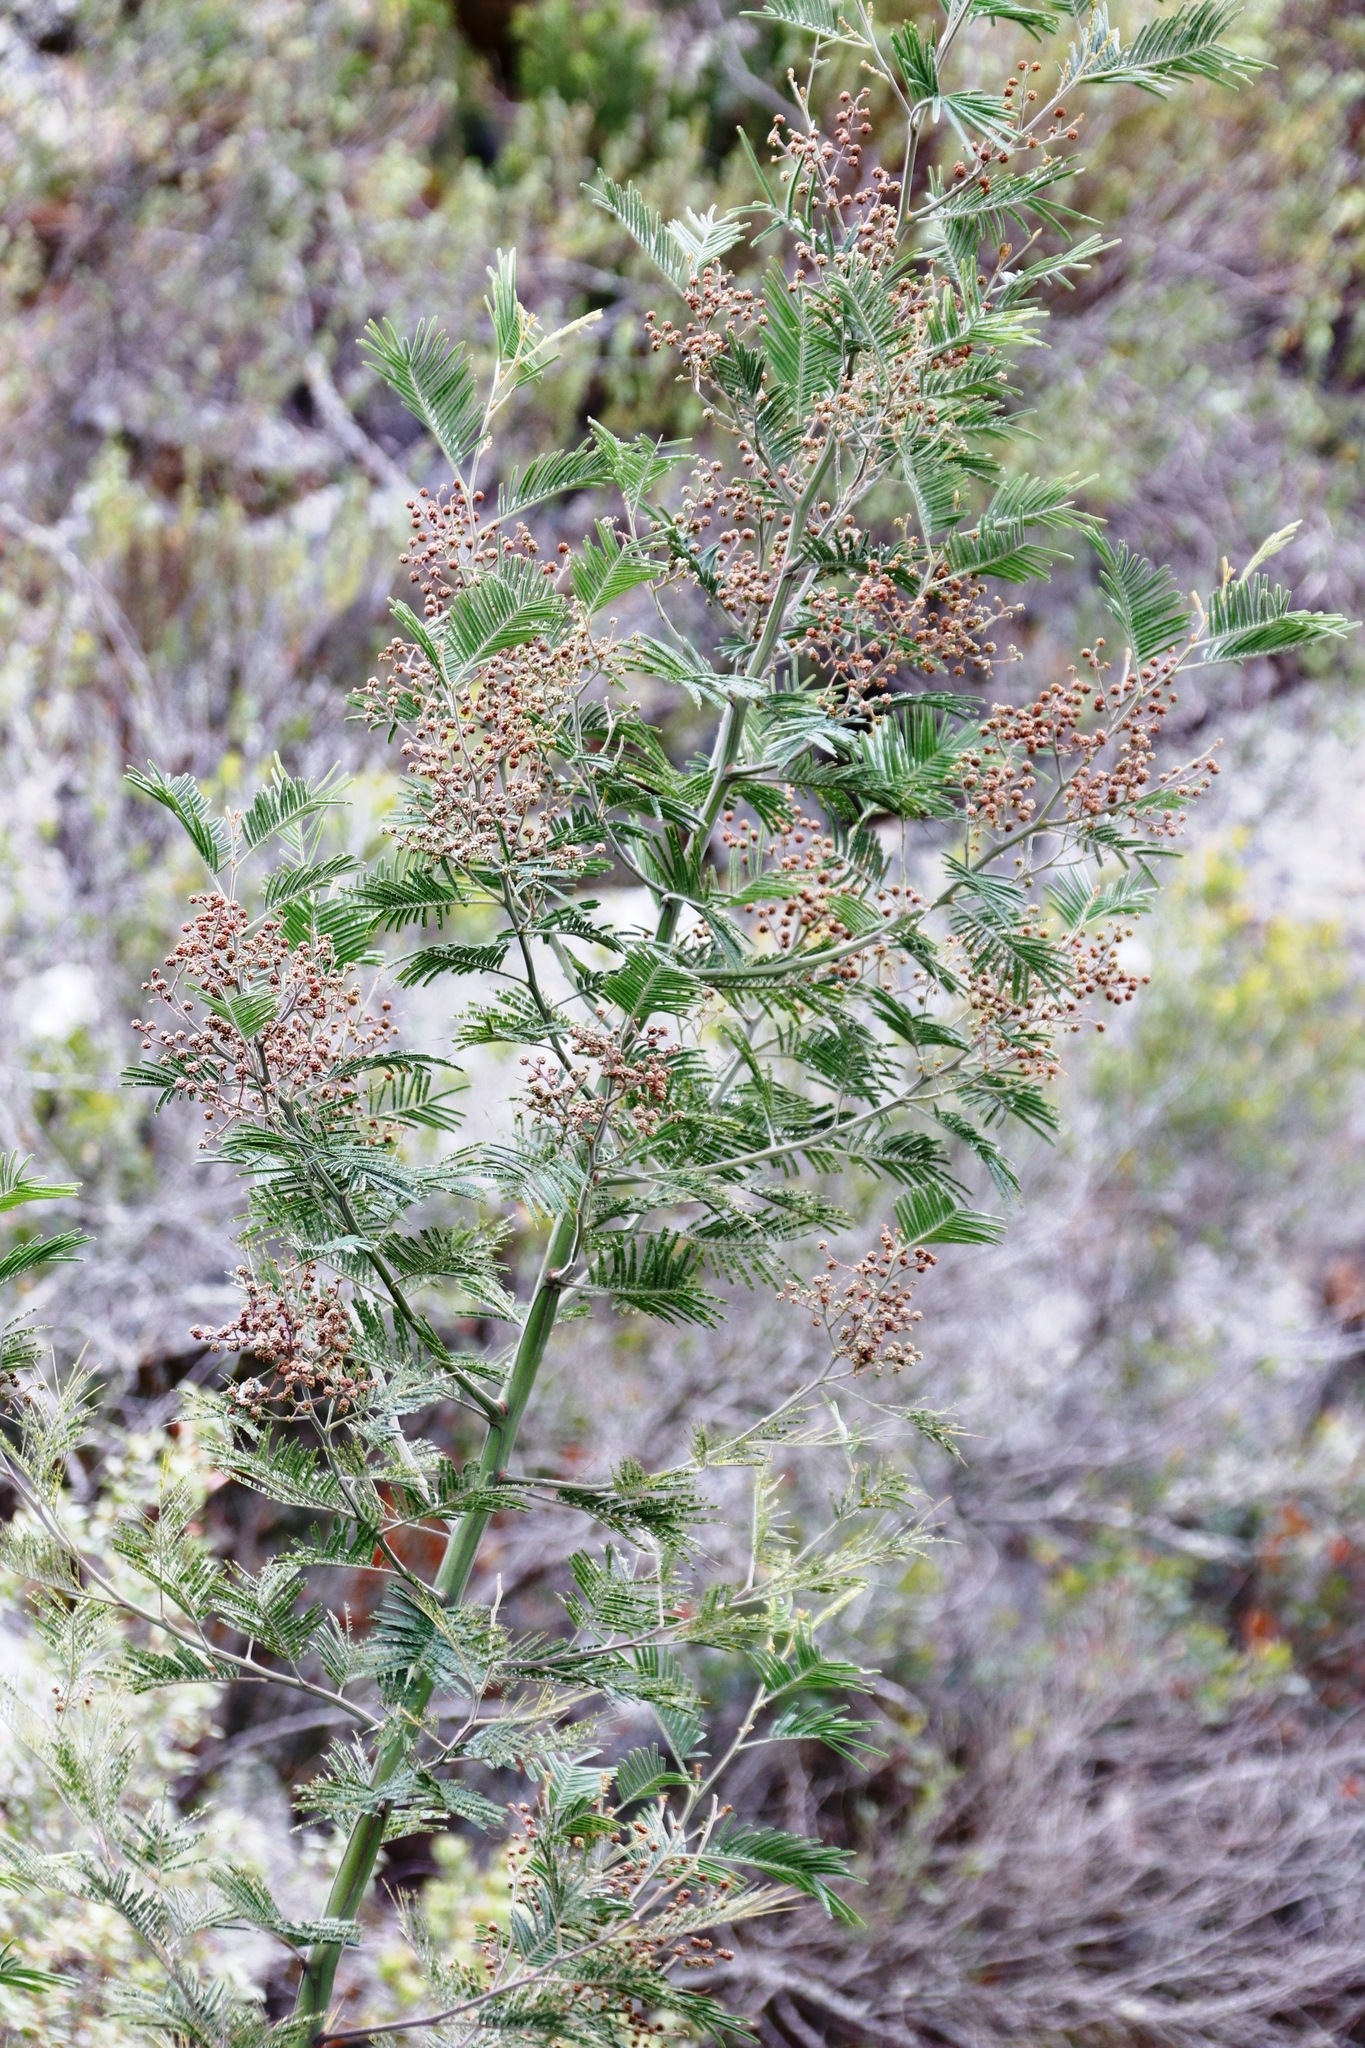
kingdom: Plantae
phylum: Tracheophyta
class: Magnoliopsida
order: Fabales
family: Fabaceae
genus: Acacia
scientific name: Acacia mearnsii
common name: Black wattle
